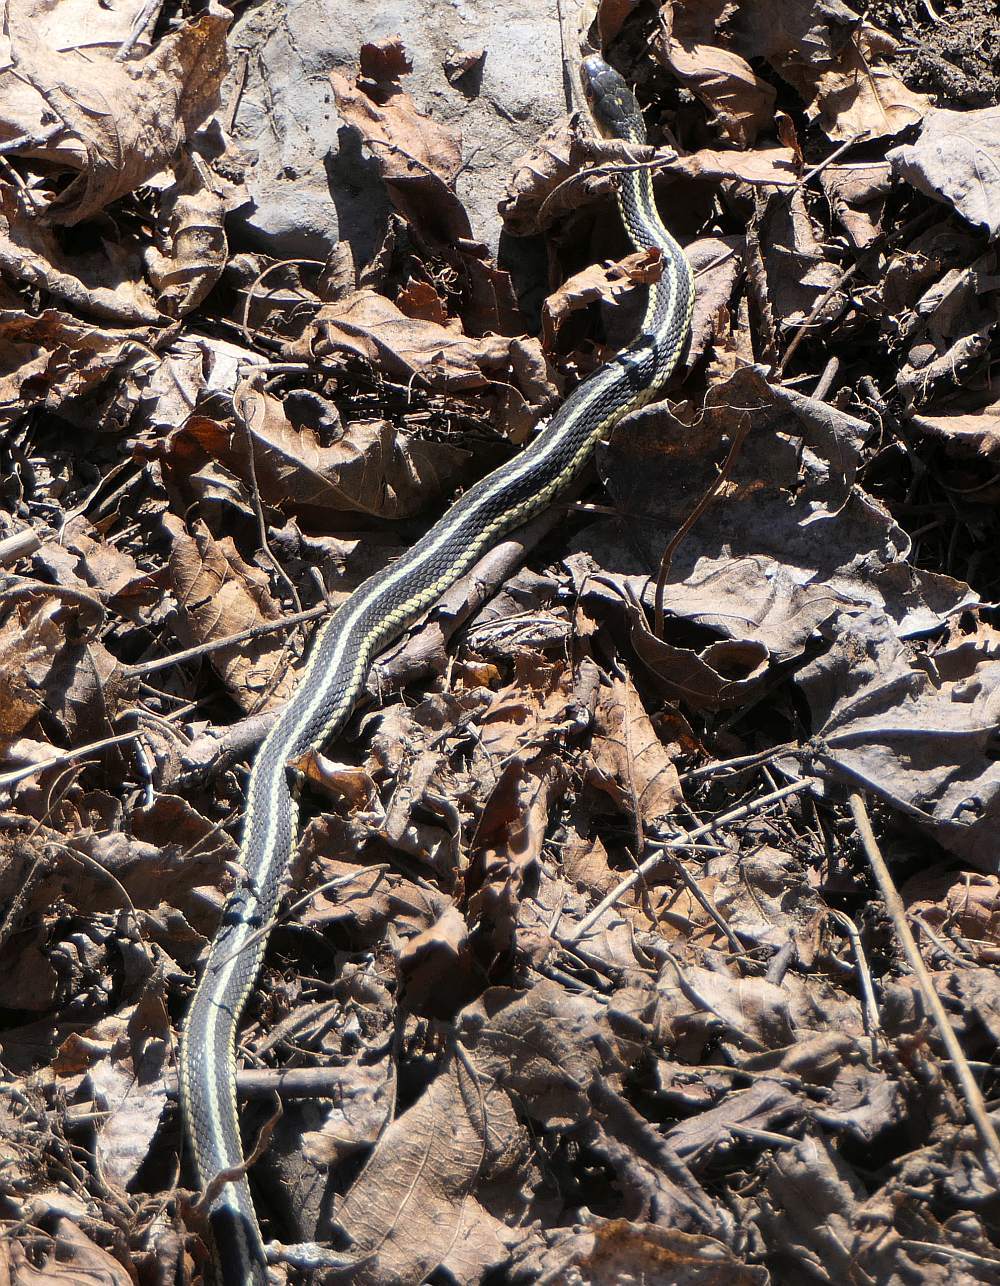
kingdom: Animalia
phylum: Chordata
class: Squamata
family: Colubridae
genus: Thamnophis
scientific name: Thamnophis sirtalis
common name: Common garter snake
